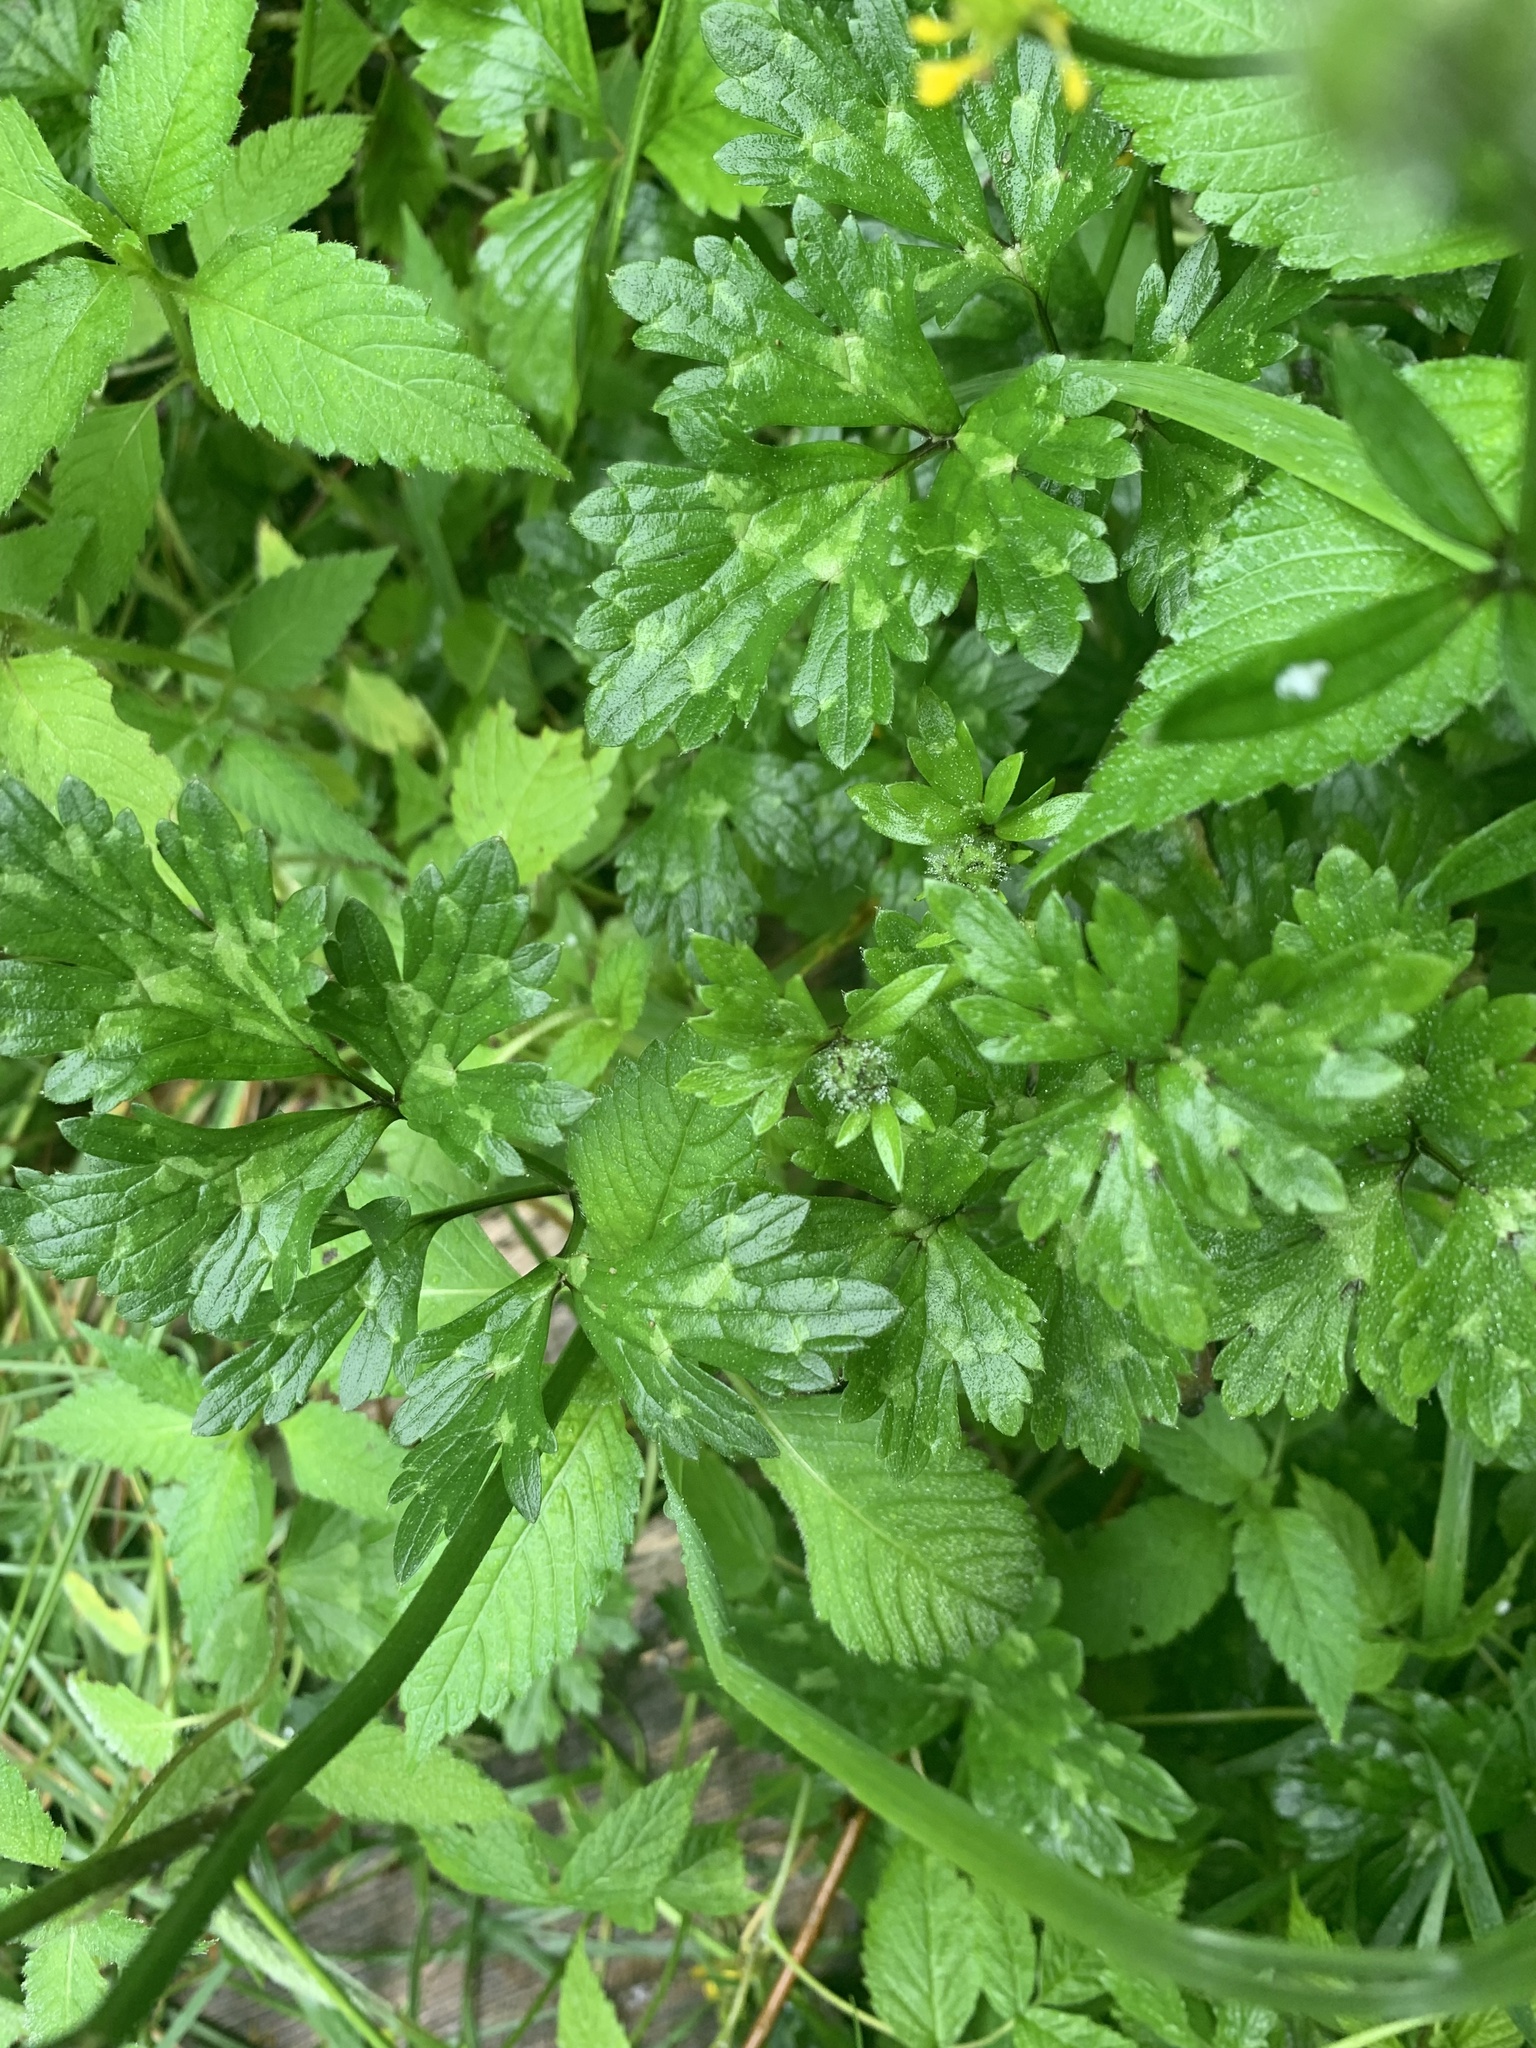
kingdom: Plantae
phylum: Tracheophyta
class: Magnoliopsida
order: Ranunculales
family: Ranunculaceae
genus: Ranunculus
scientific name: Ranunculus repens
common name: Creeping buttercup
